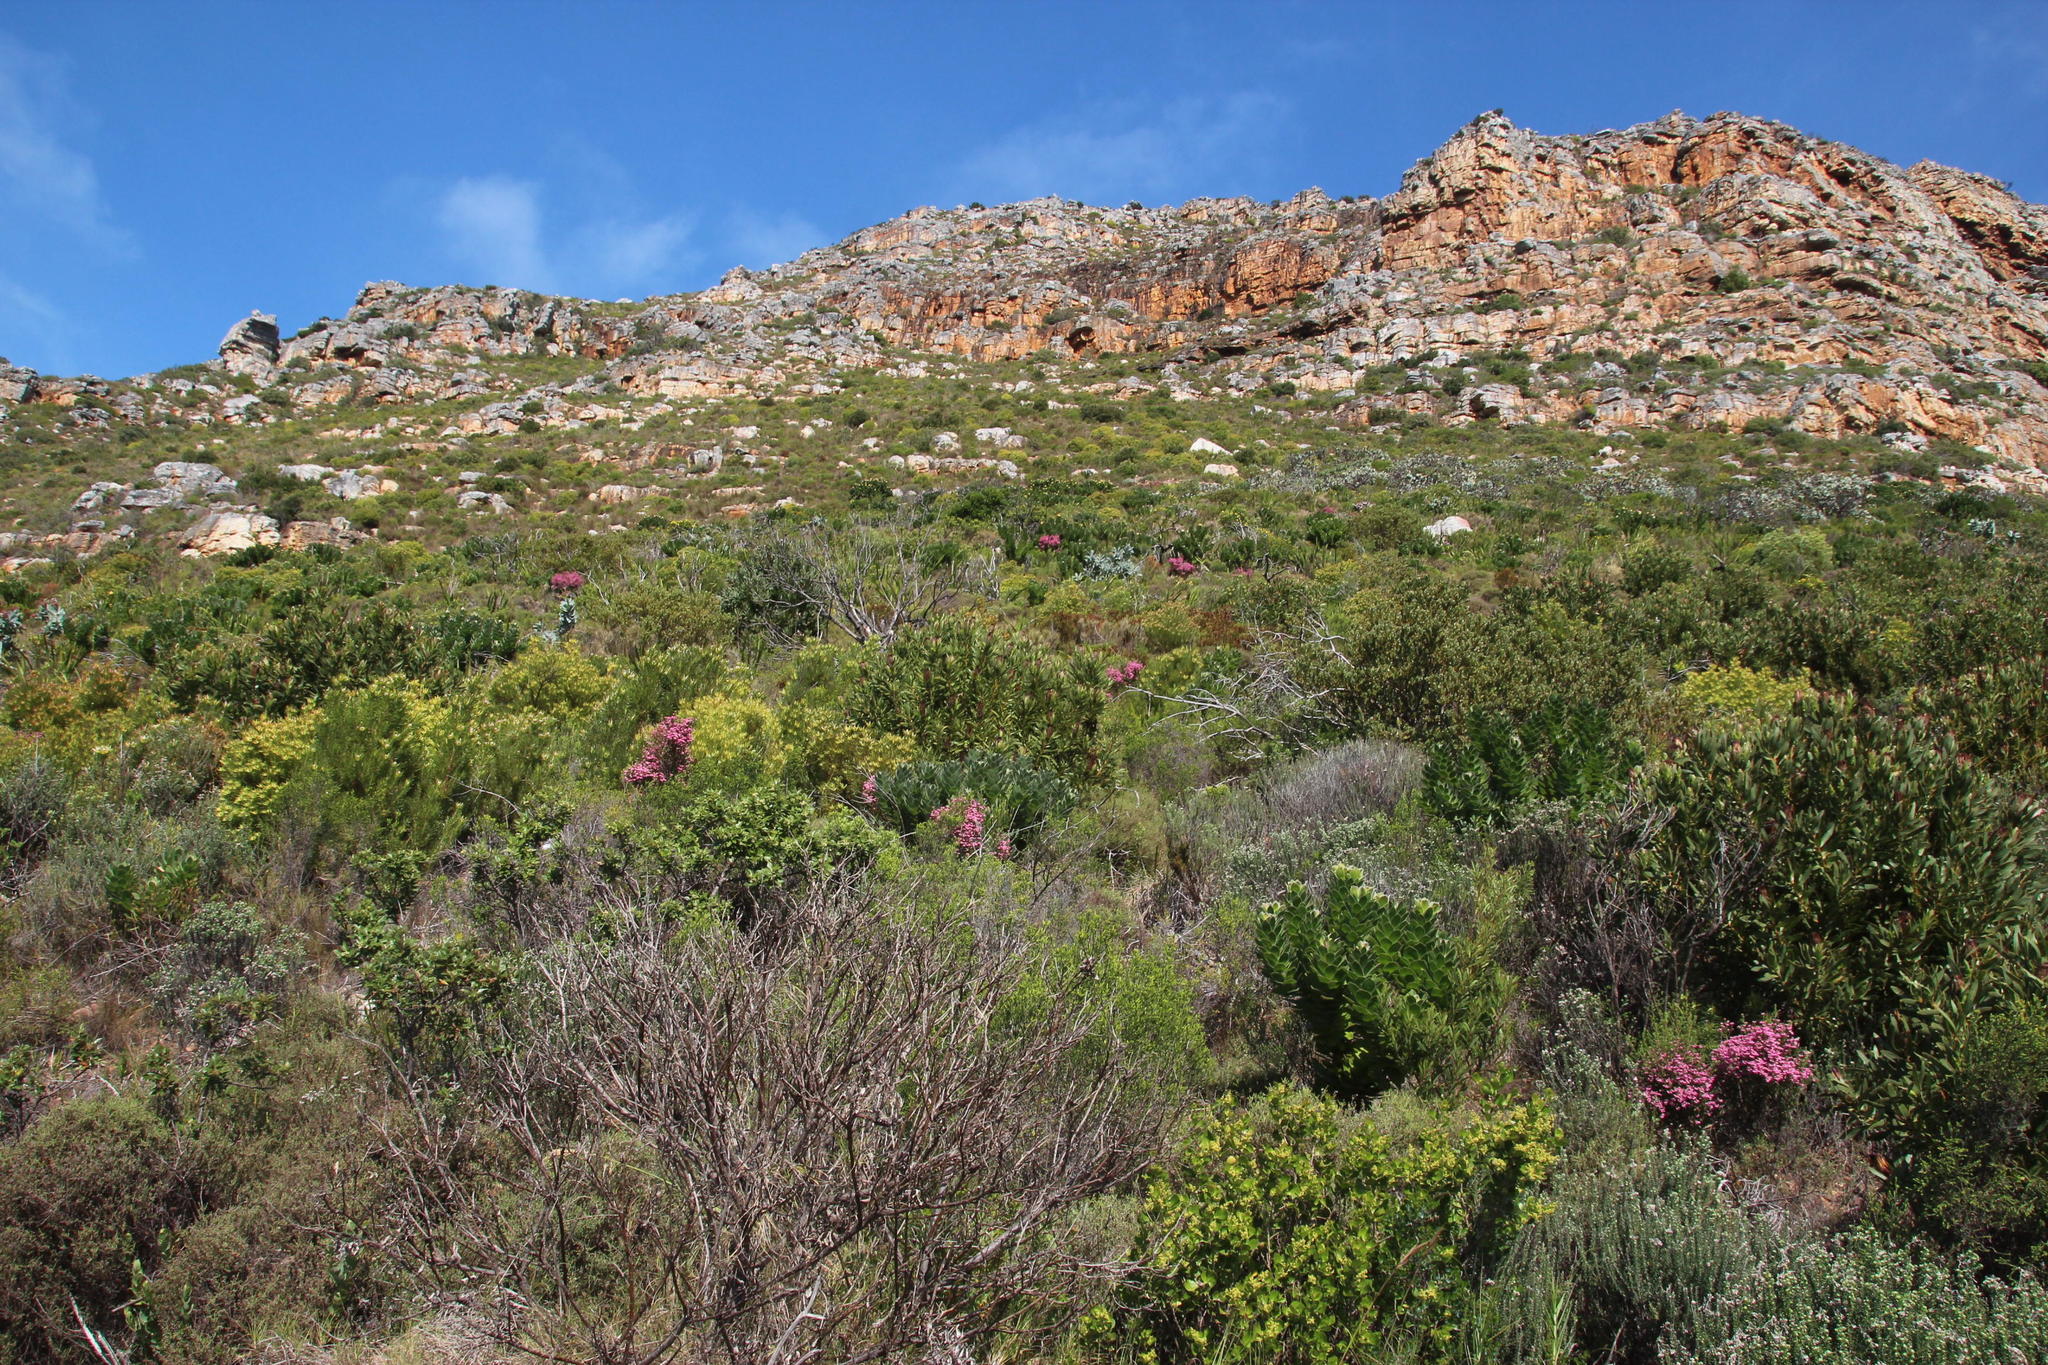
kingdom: Plantae
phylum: Tracheophyta
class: Magnoliopsida
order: Ericales
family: Ericaceae
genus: Erica
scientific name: Erica baccans
